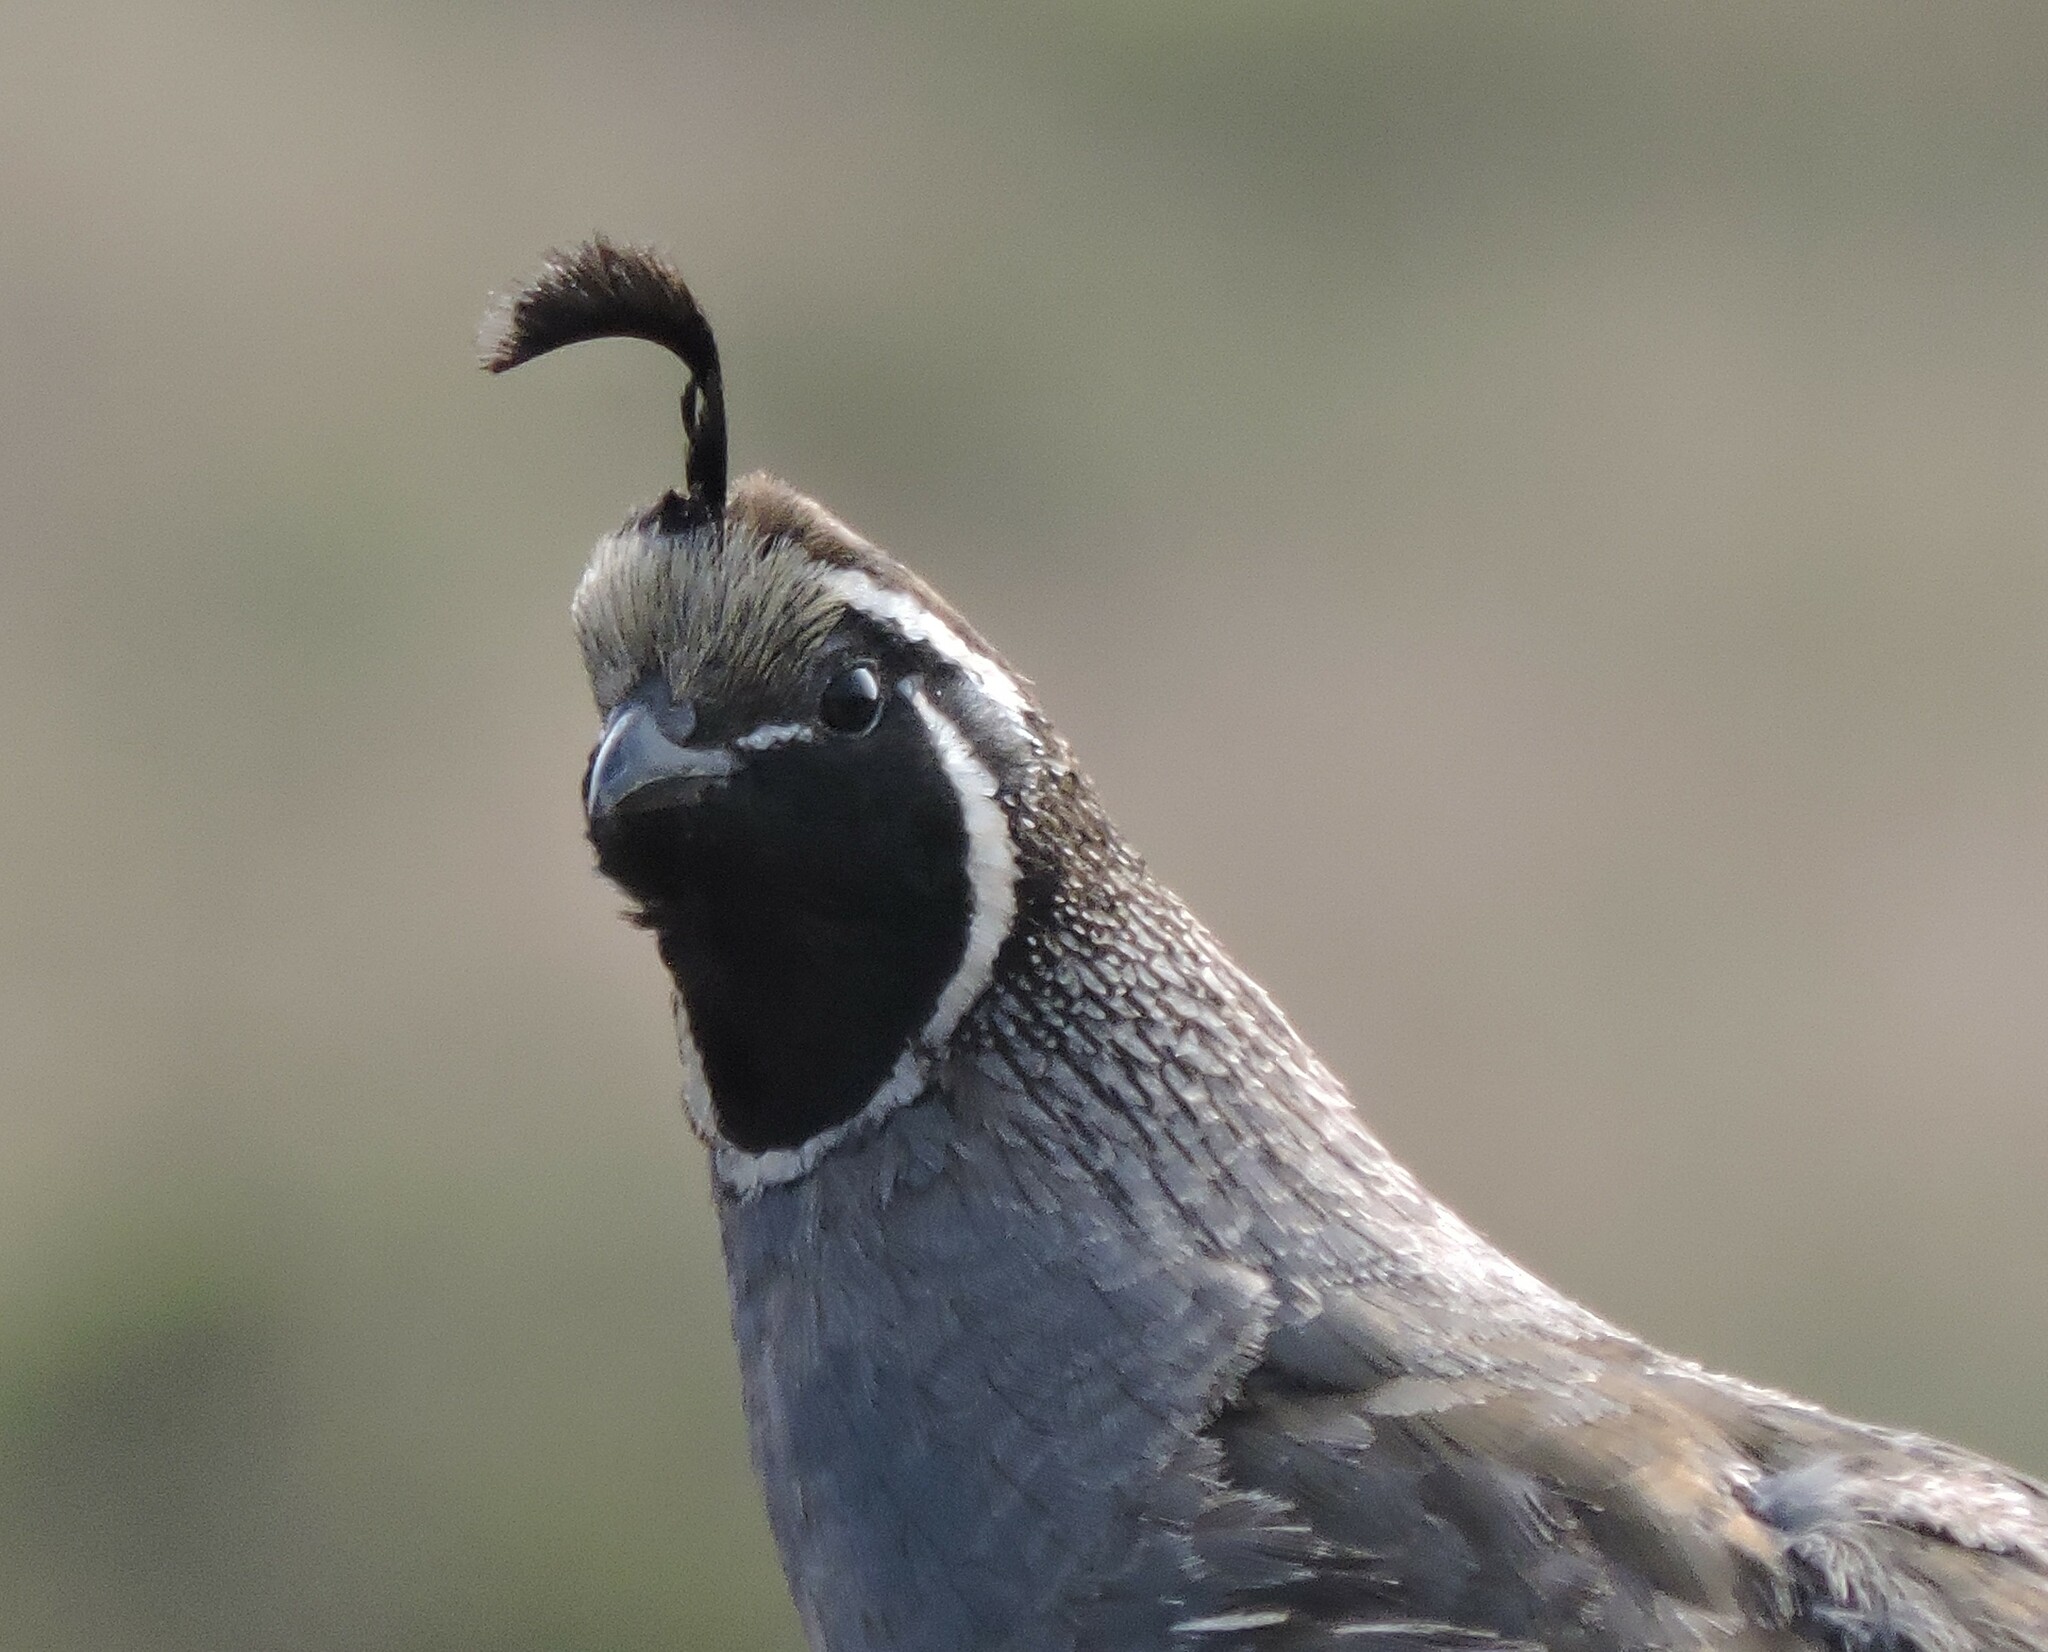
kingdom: Animalia
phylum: Chordata
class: Aves
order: Galliformes
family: Odontophoridae
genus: Callipepla
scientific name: Callipepla californica
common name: California quail
